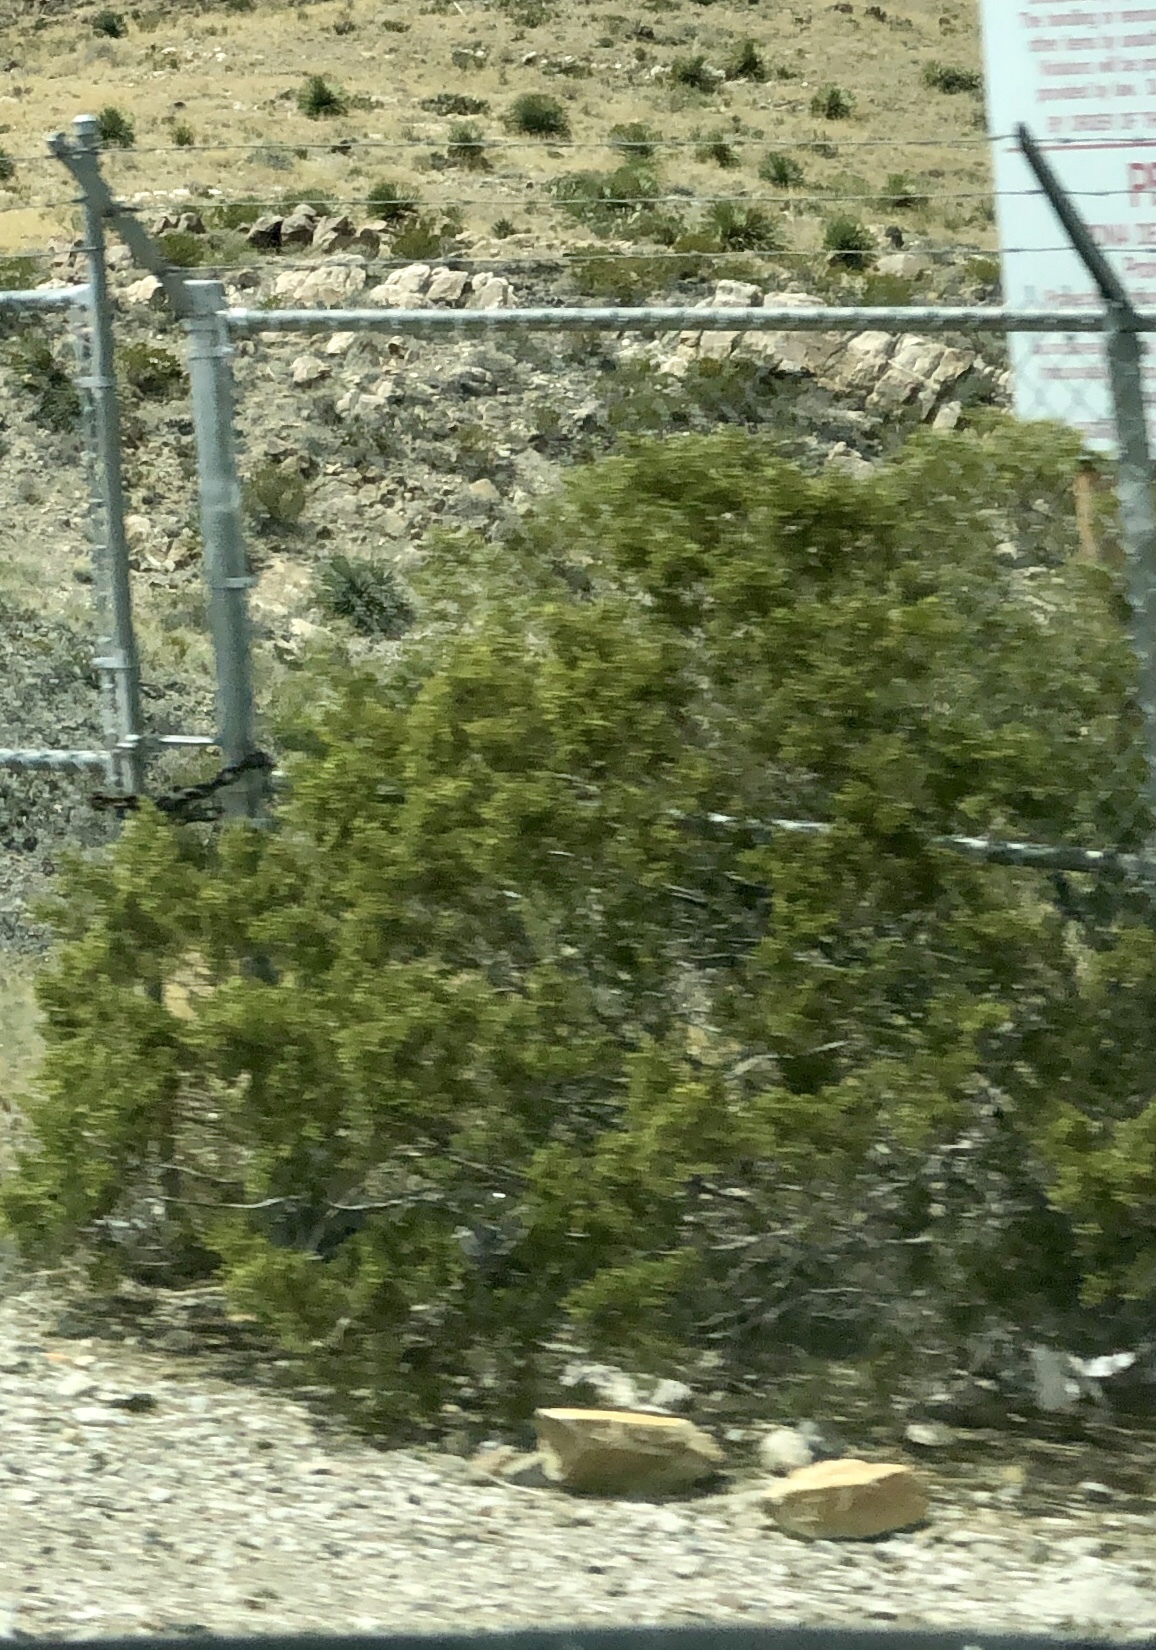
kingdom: Plantae
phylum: Tracheophyta
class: Magnoliopsida
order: Zygophyllales
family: Zygophyllaceae
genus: Larrea
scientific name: Larrea tridentata
